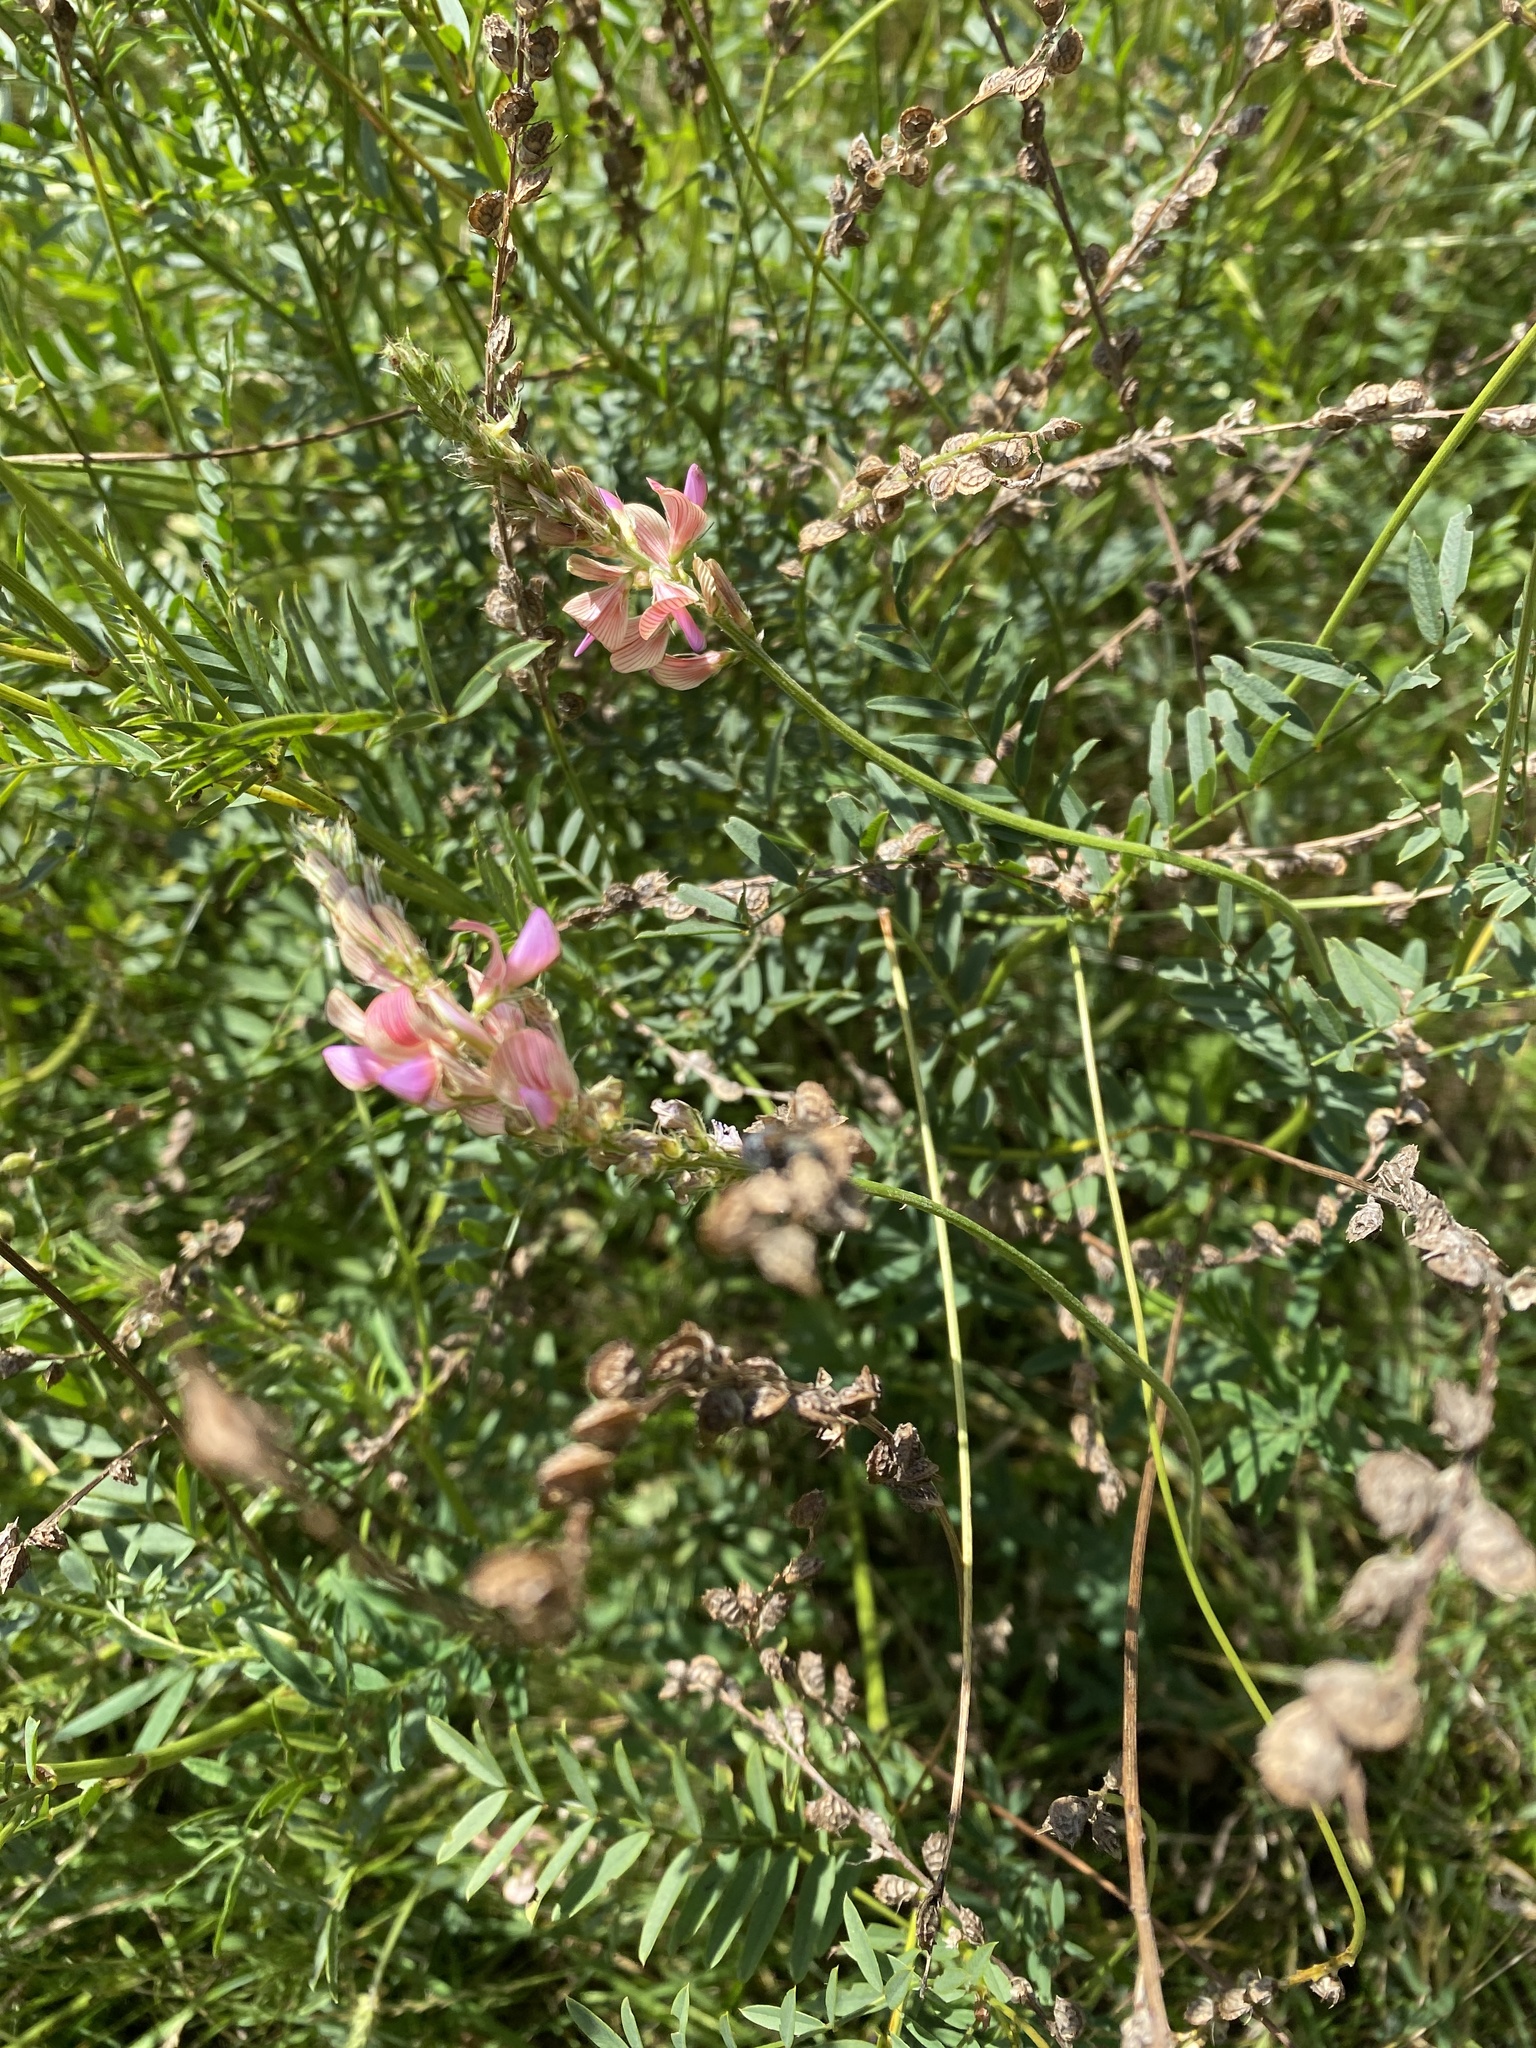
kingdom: Plantae
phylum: Tracheophyta
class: Magnoliopsida
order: Fabales
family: Fabaceae
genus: Onobrychis
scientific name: Onobrychis viciifolia
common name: Sainfoin
